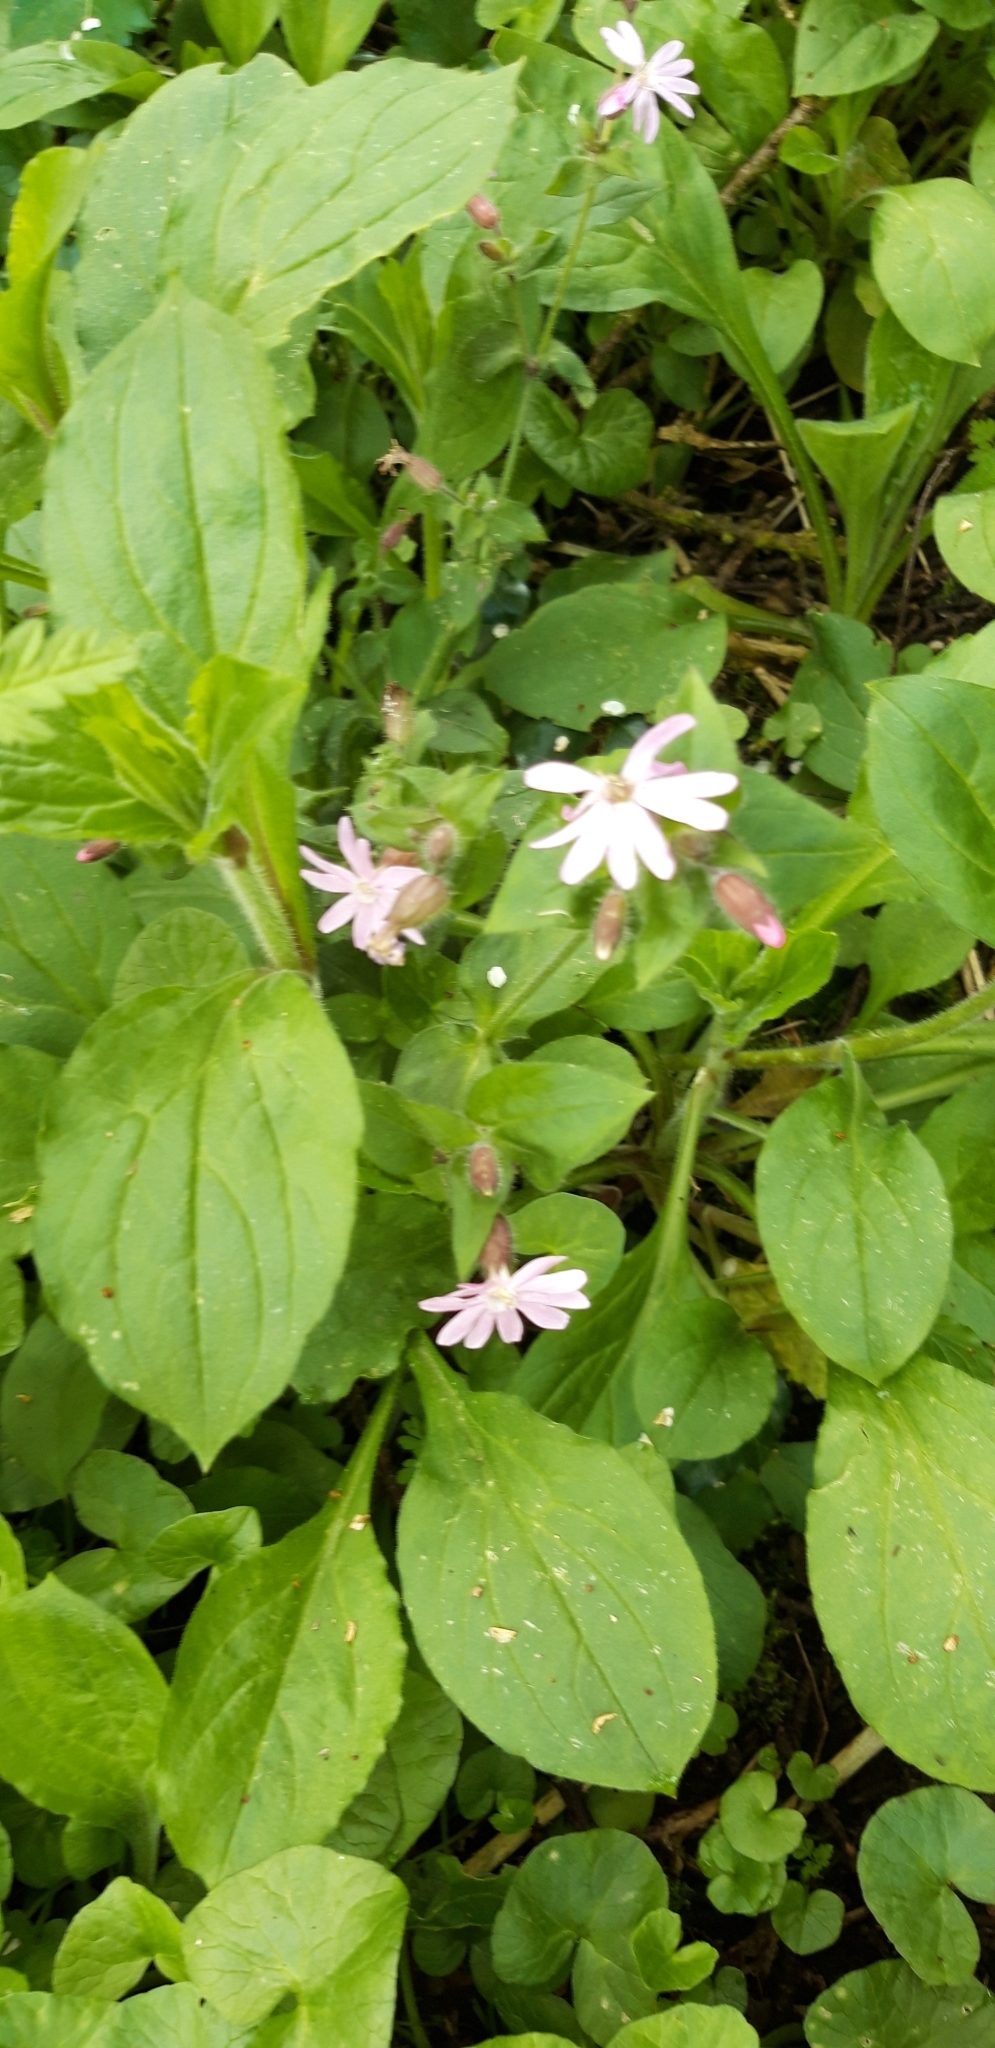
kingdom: Plantae
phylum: Tracheophyta
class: Magnoliopsida
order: Caryophyllales
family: Caryophyllaceae
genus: Silene
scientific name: Silene dioica
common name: Red campion
